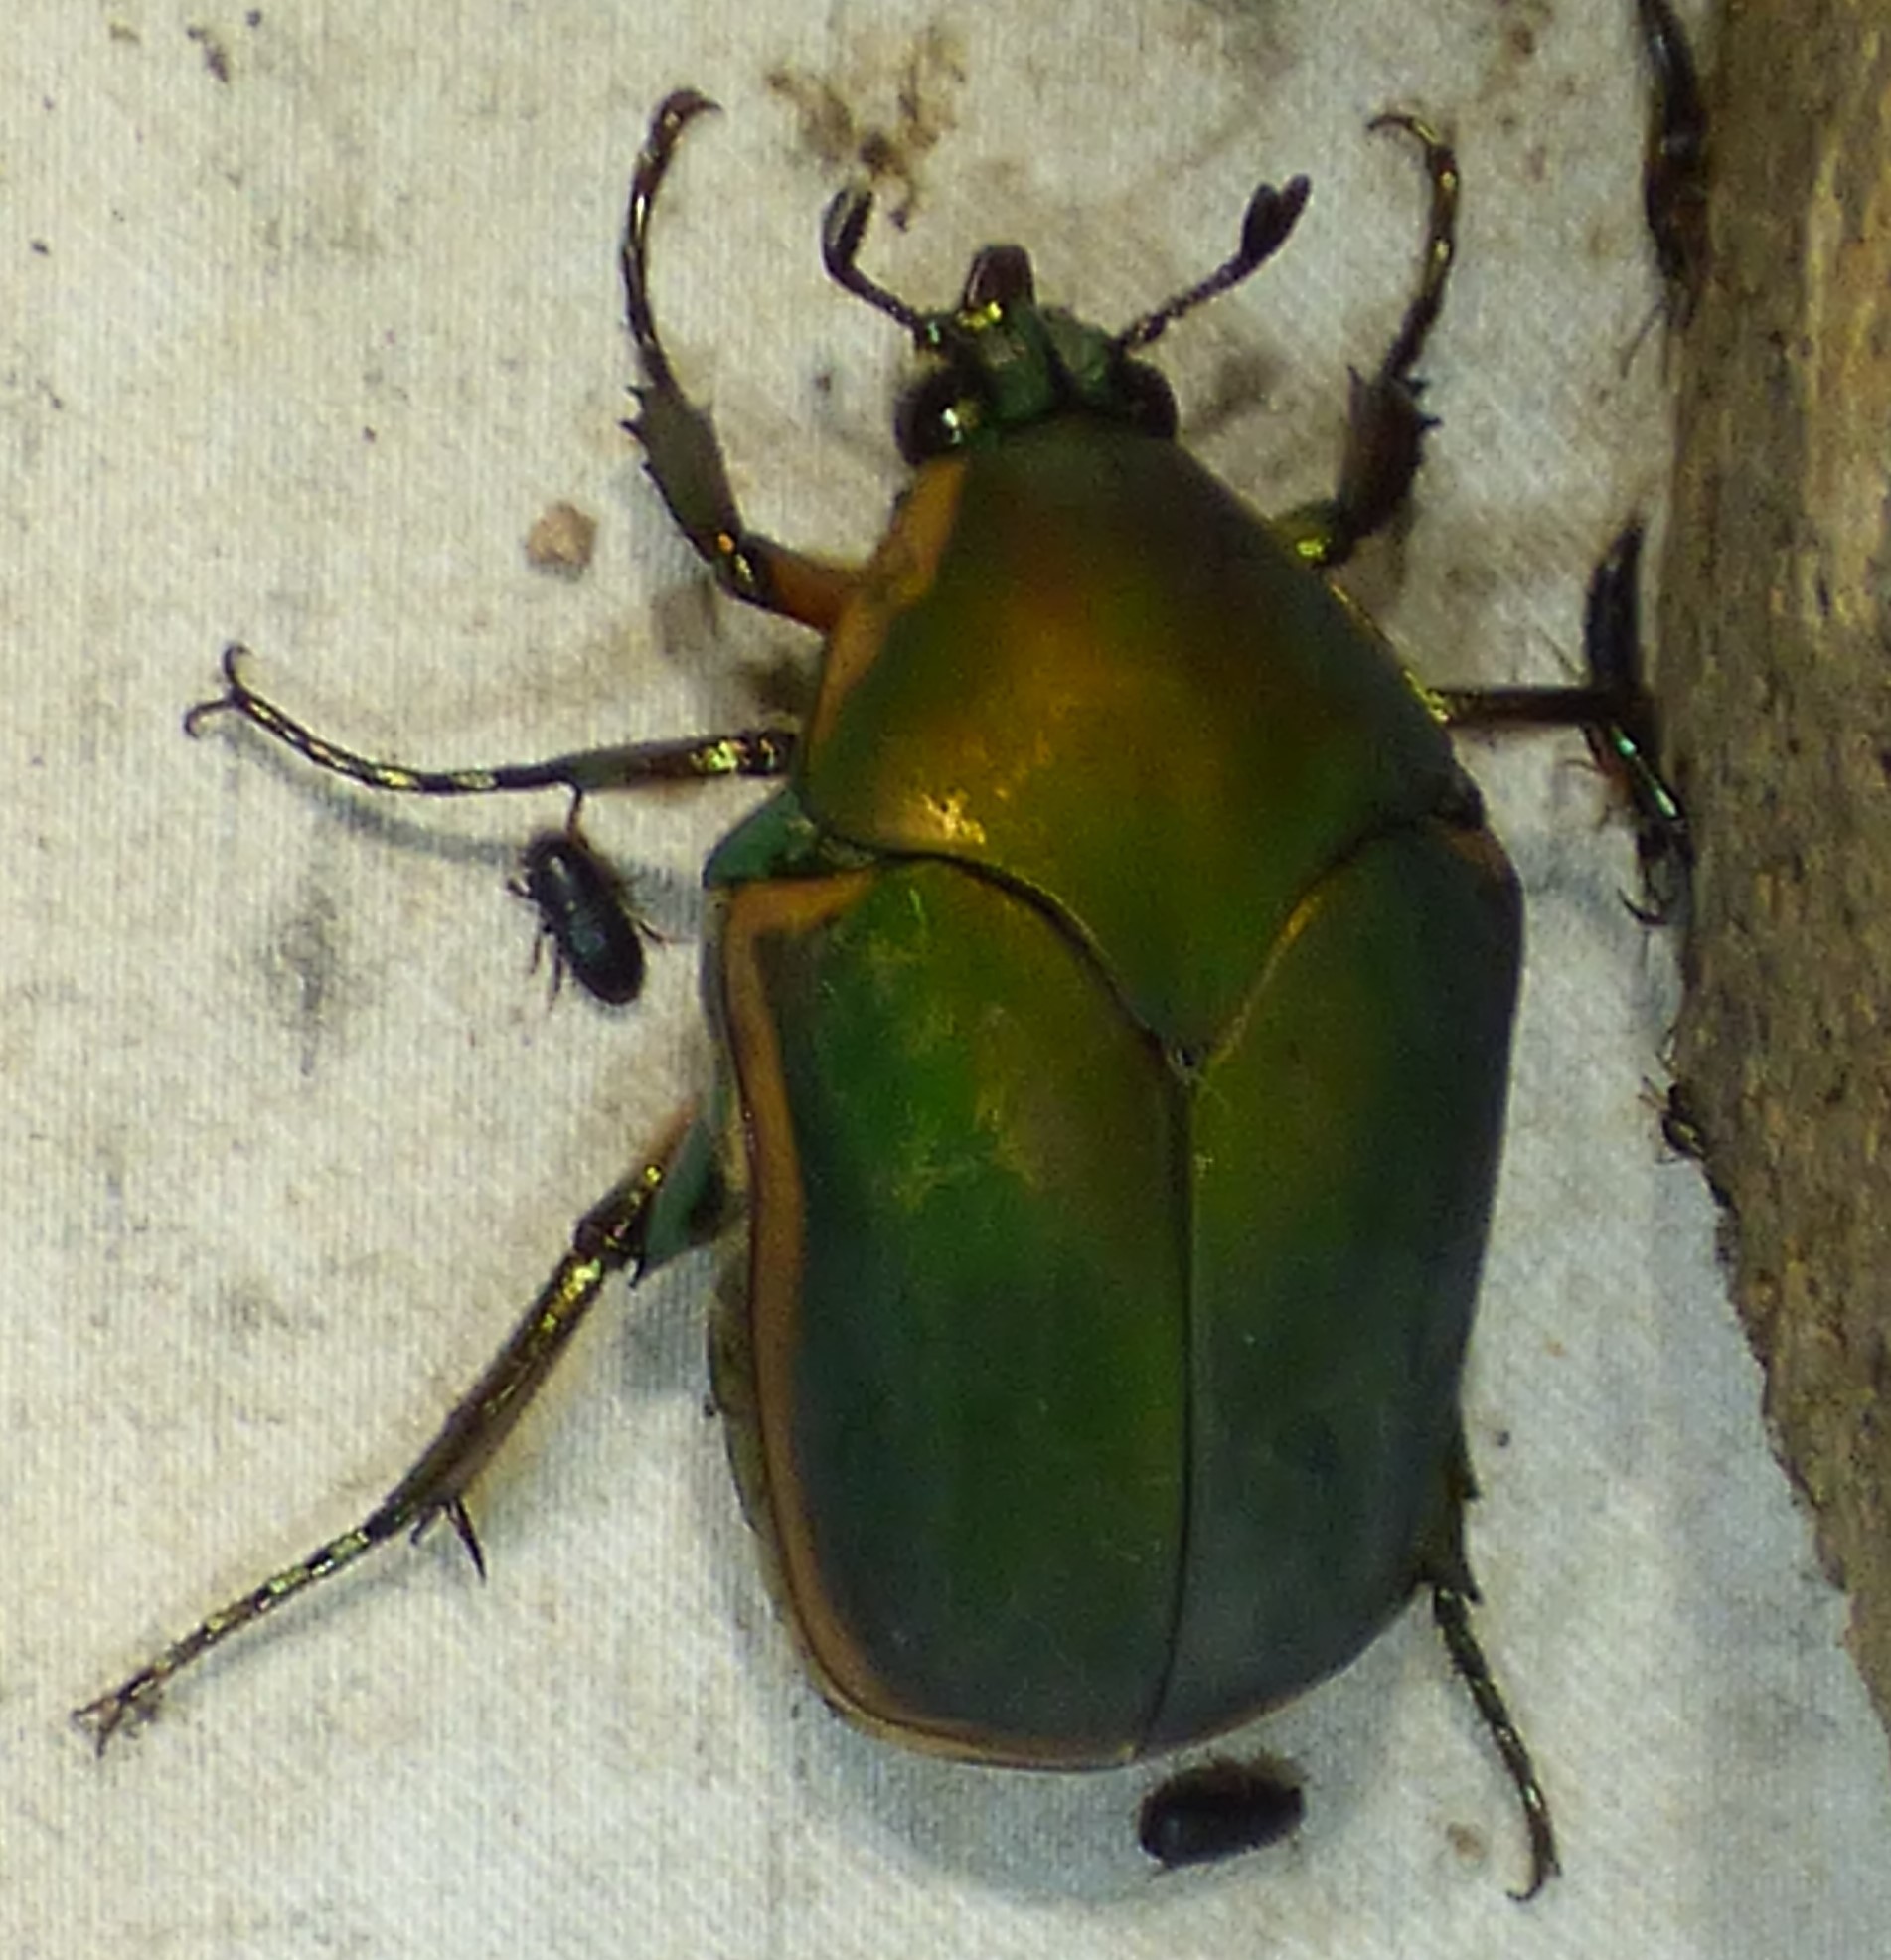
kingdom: Animalia
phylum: Arthropoda
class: Insecta
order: Coleoptera
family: Scarabaeidae
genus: Cotinis
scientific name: Cotinis nitida
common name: Common green june beetle
